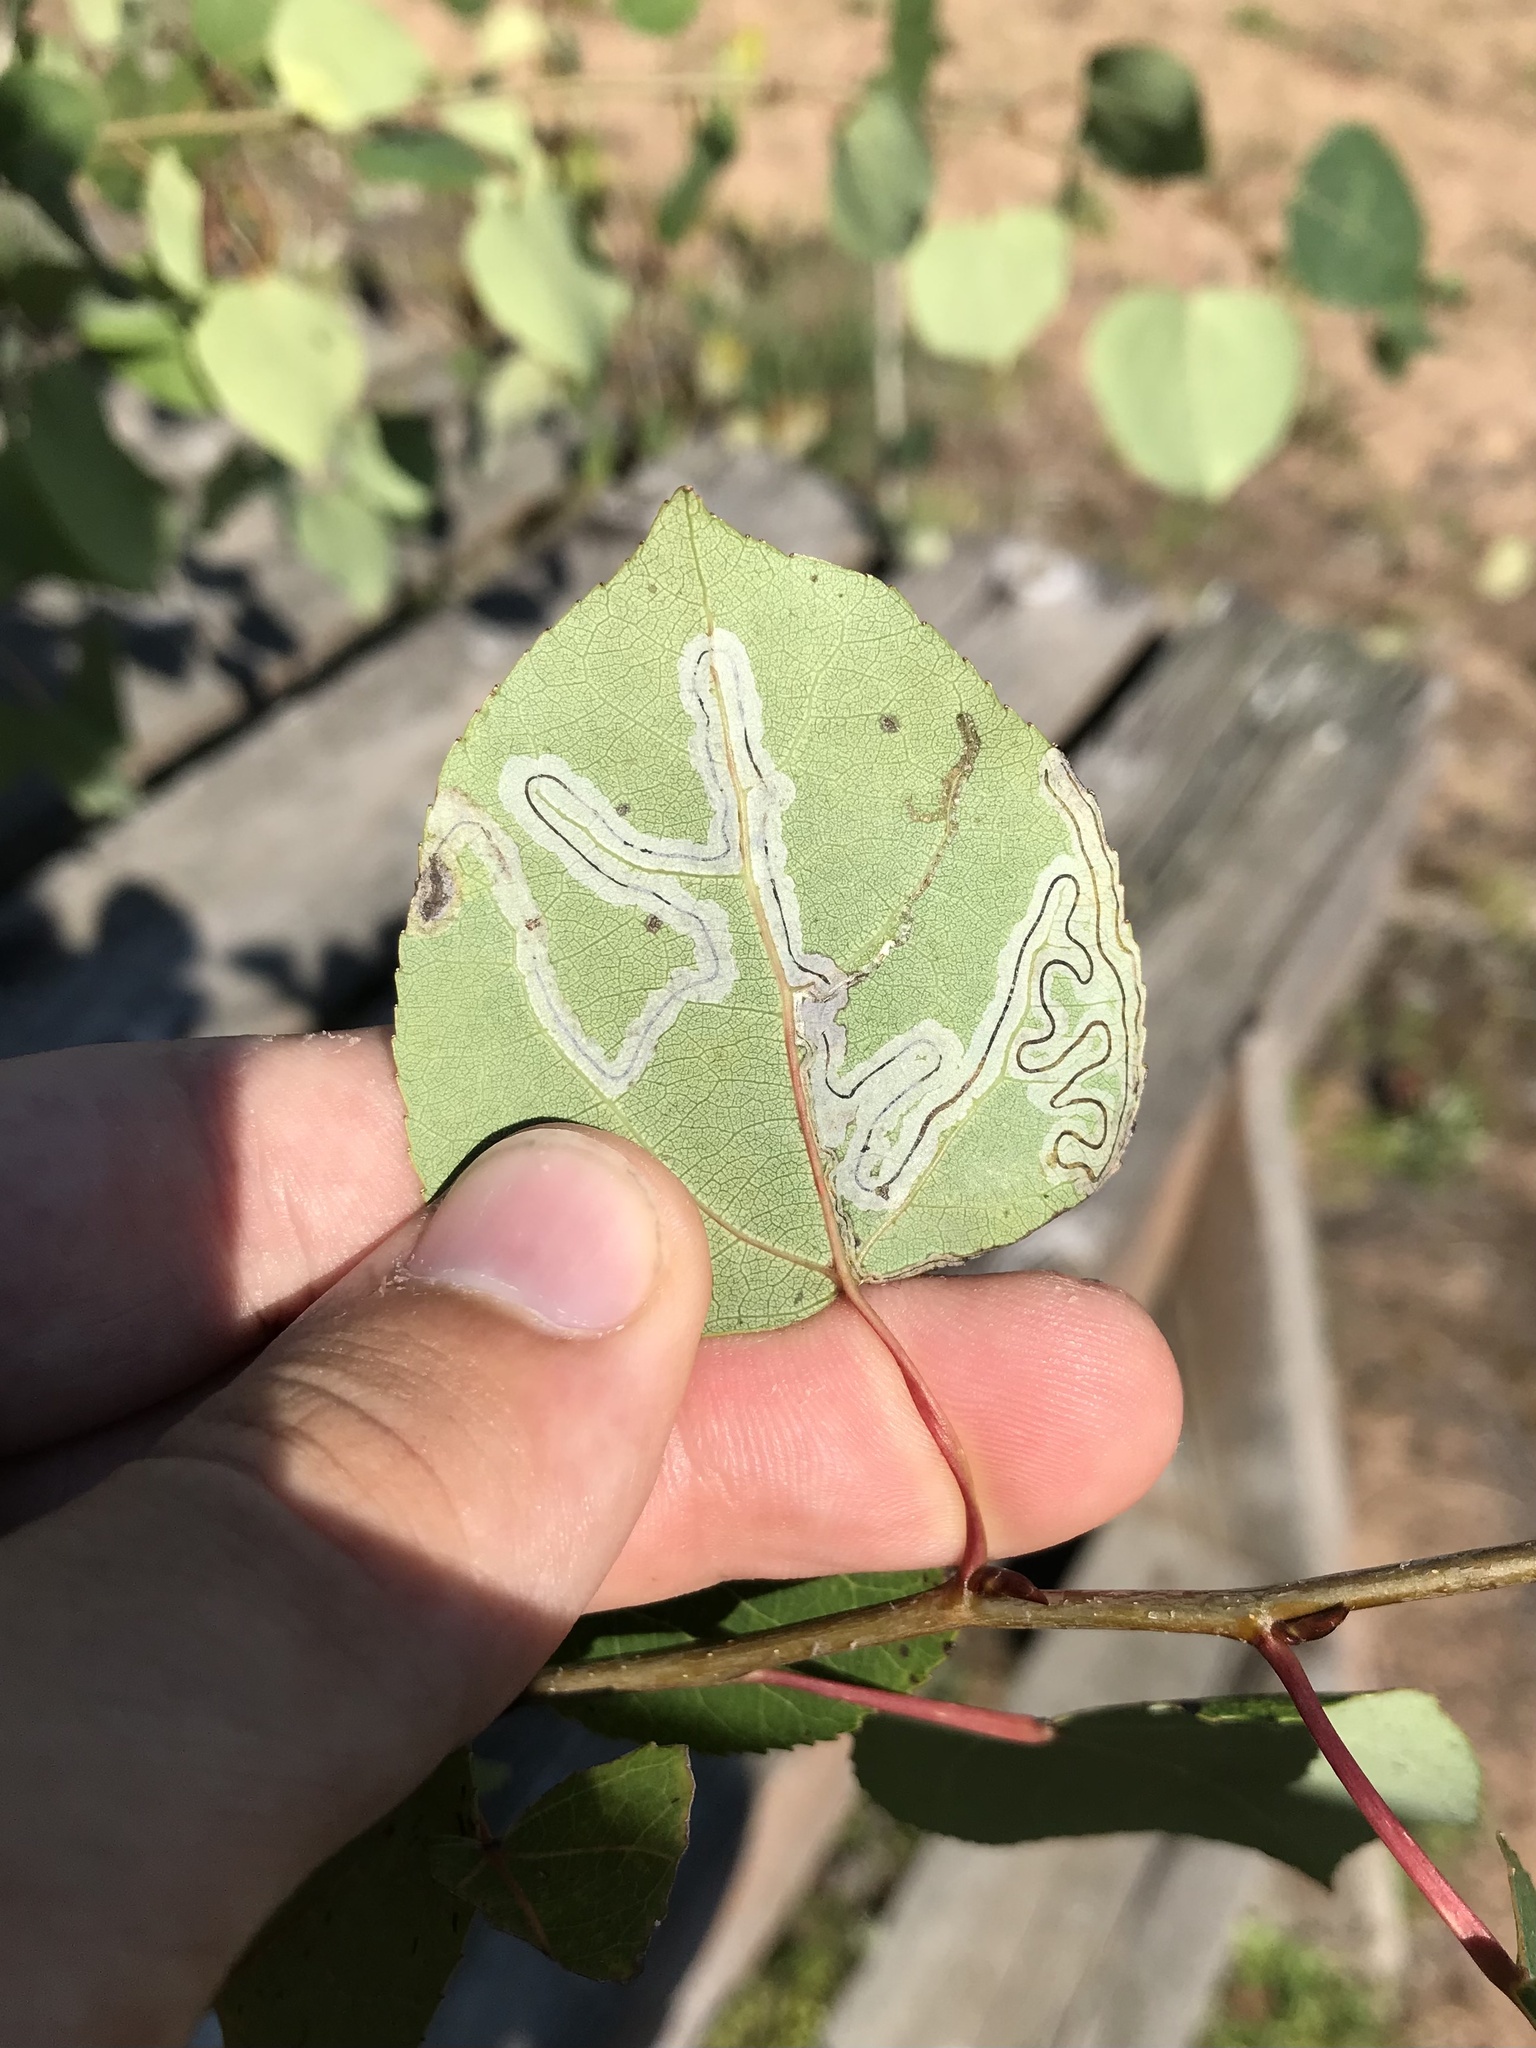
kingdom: Animalia
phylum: Arthropoda
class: Insecta
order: Lepidoptera
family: Gracillariidae
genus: Phyllocnistis
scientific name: Phyllocnistis populiella
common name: Aspen serpentine leafminer moth
